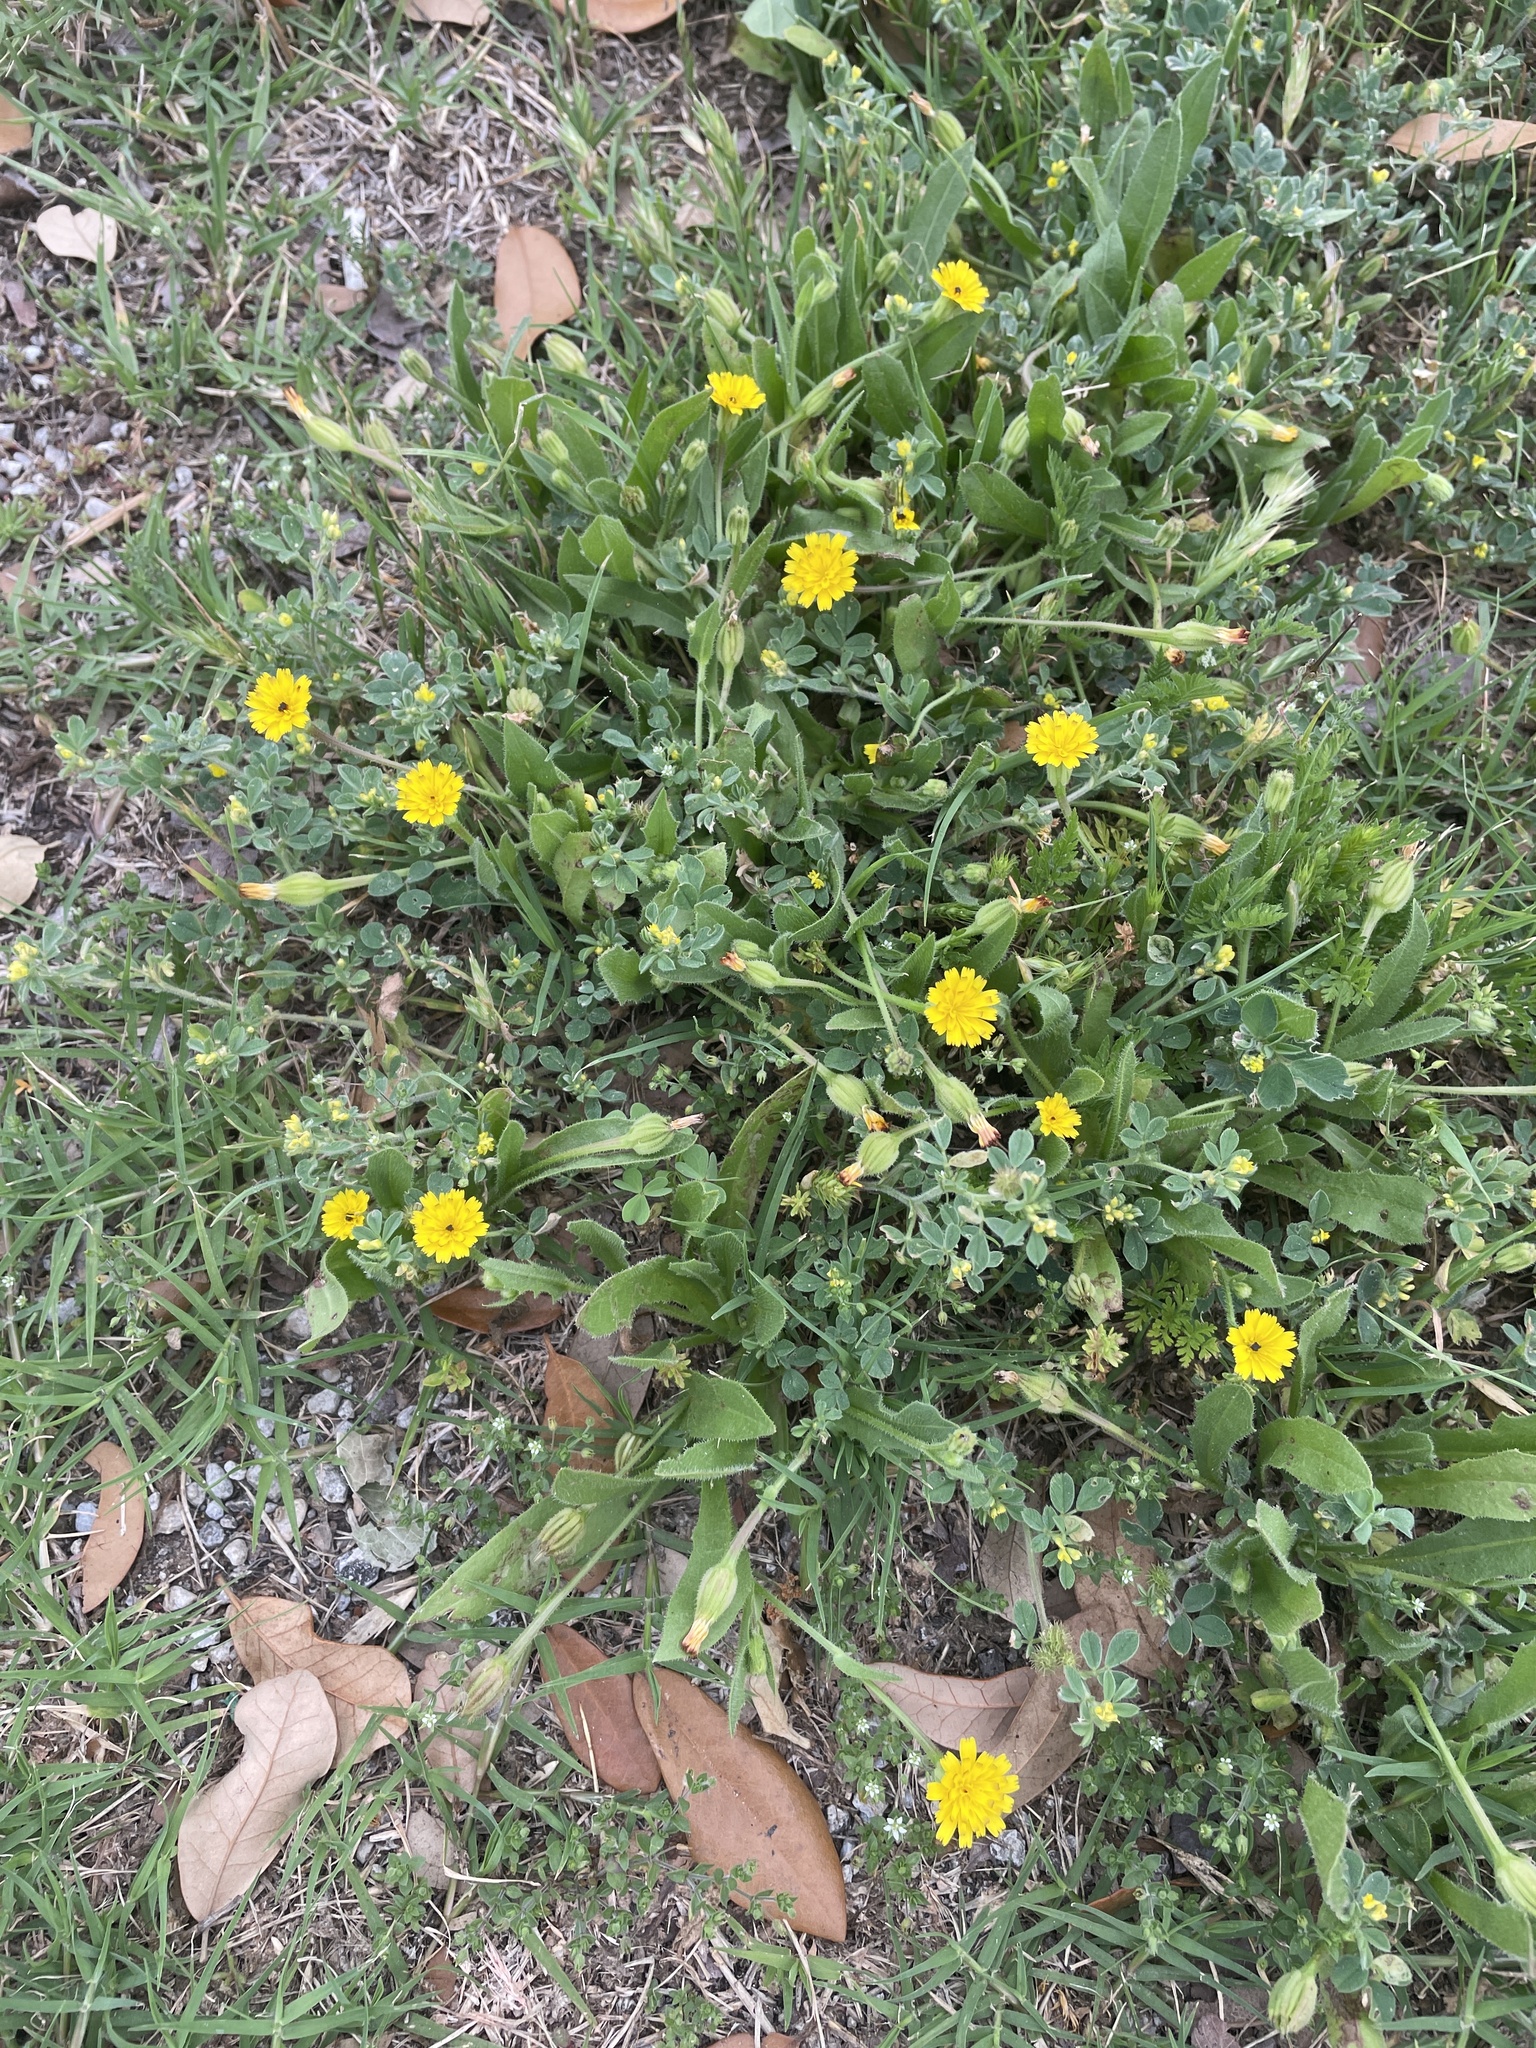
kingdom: Plantae
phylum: Tracheophyta
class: Magnoliopsida
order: Asterales
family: Asteraceae
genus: Hedypnois
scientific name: Hedypnois rhagadioloides
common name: Cretan weed
